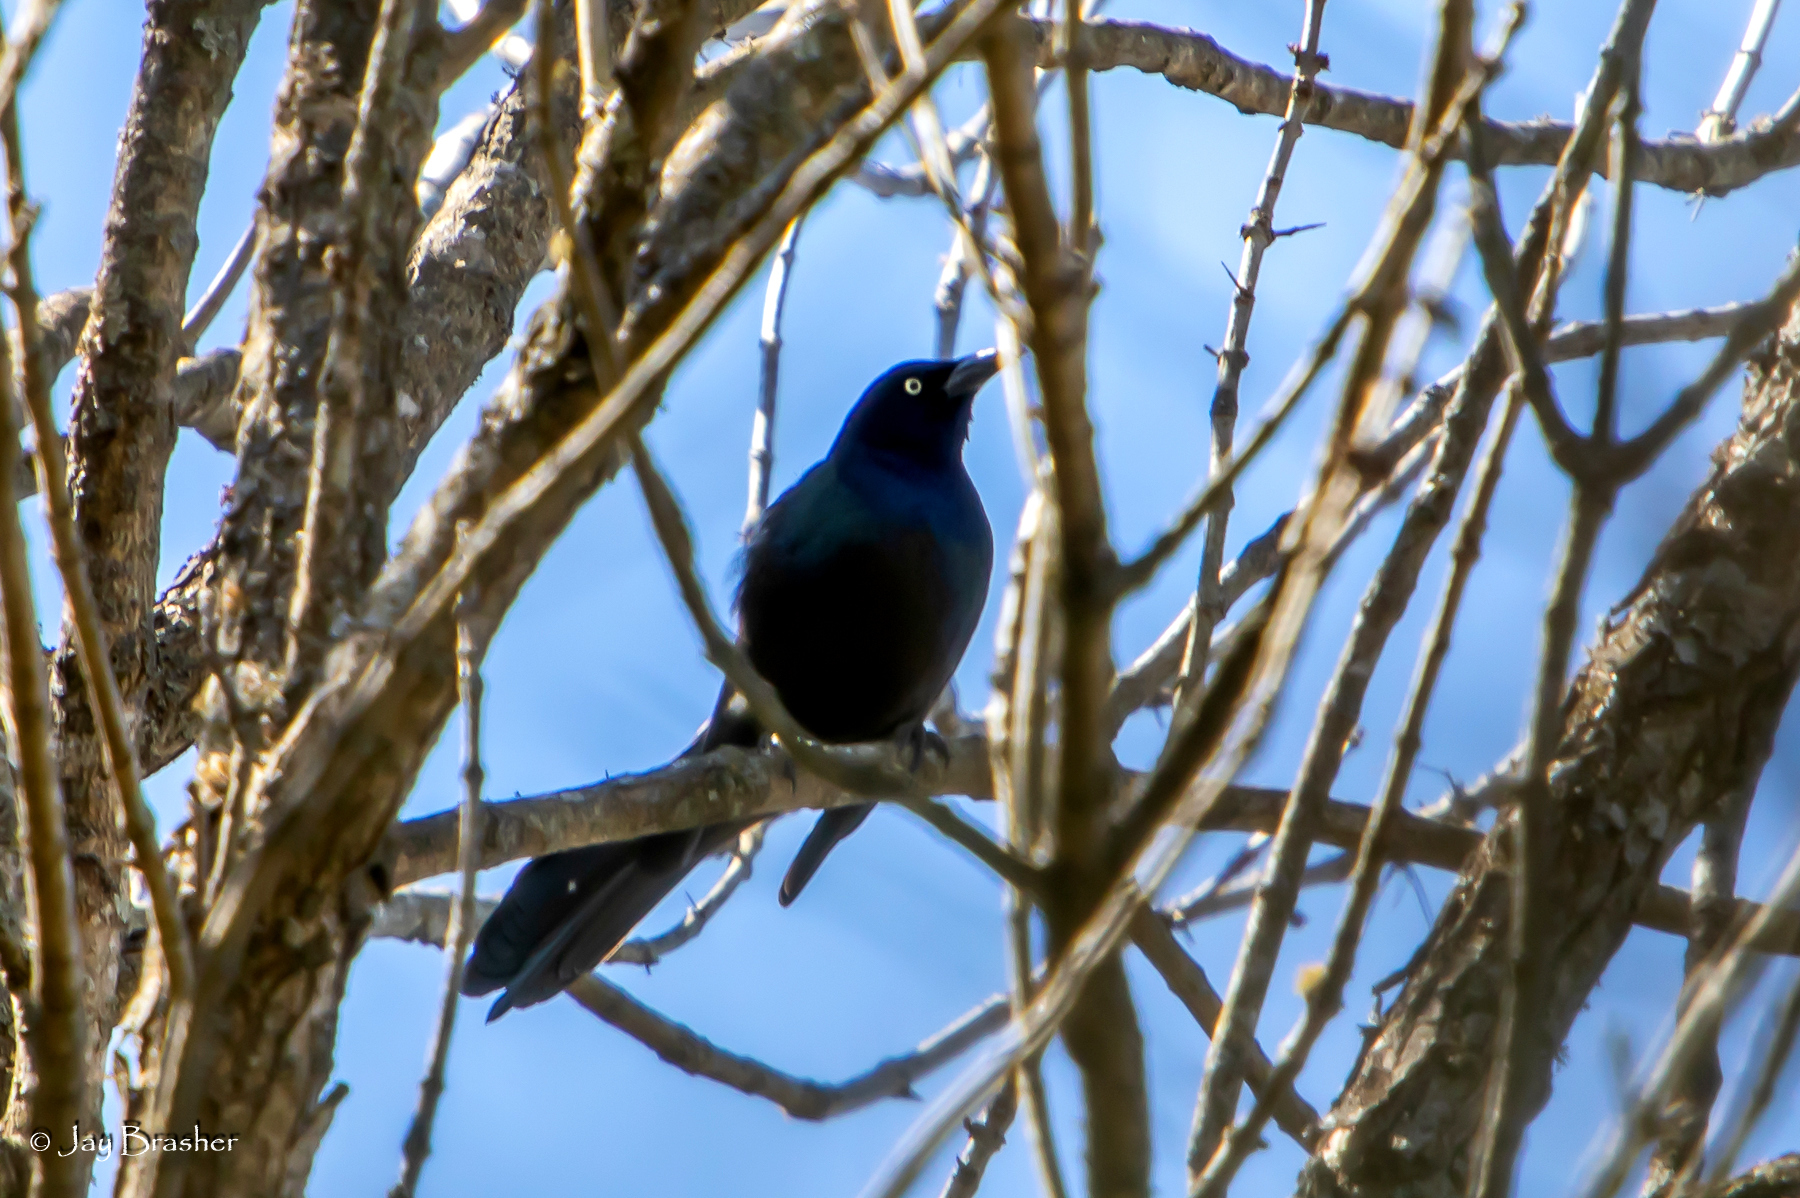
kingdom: Animalia
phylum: Chordata
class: Aves
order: Passeriformes
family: Icteridae
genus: Quiscalus
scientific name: Quiscalus quiscula
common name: Common grackle
